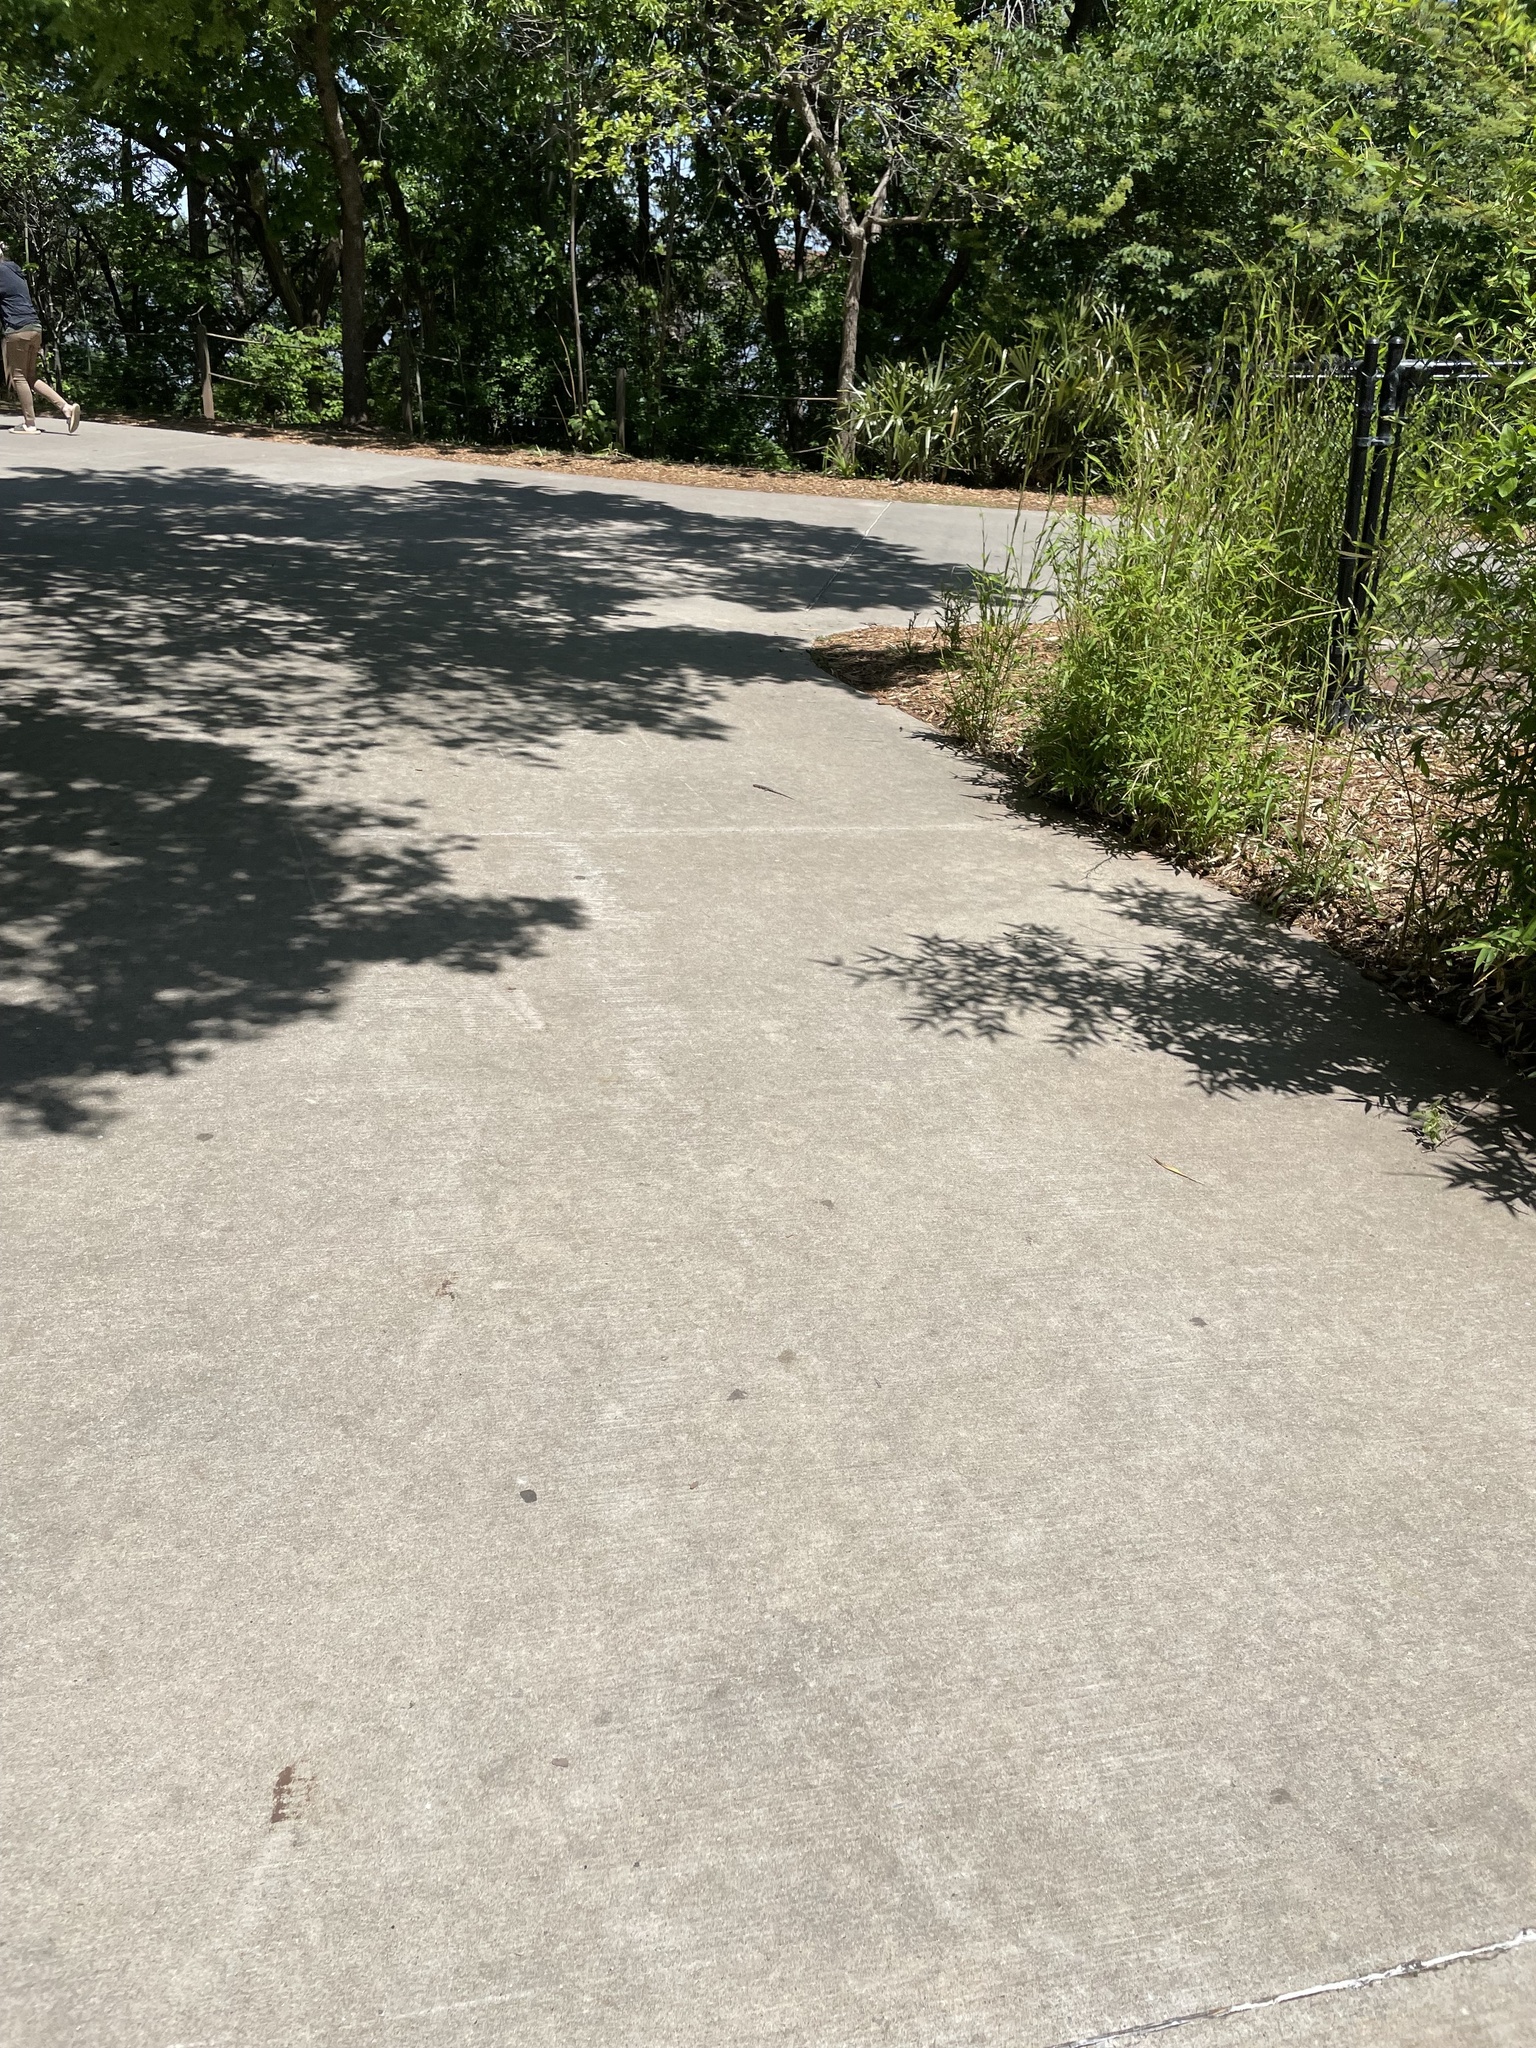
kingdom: Animalia
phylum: Chordata
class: Squamata
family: Scincidae
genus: Plestiodon
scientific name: Plestiodon fasciatus
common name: Five-lined skink
